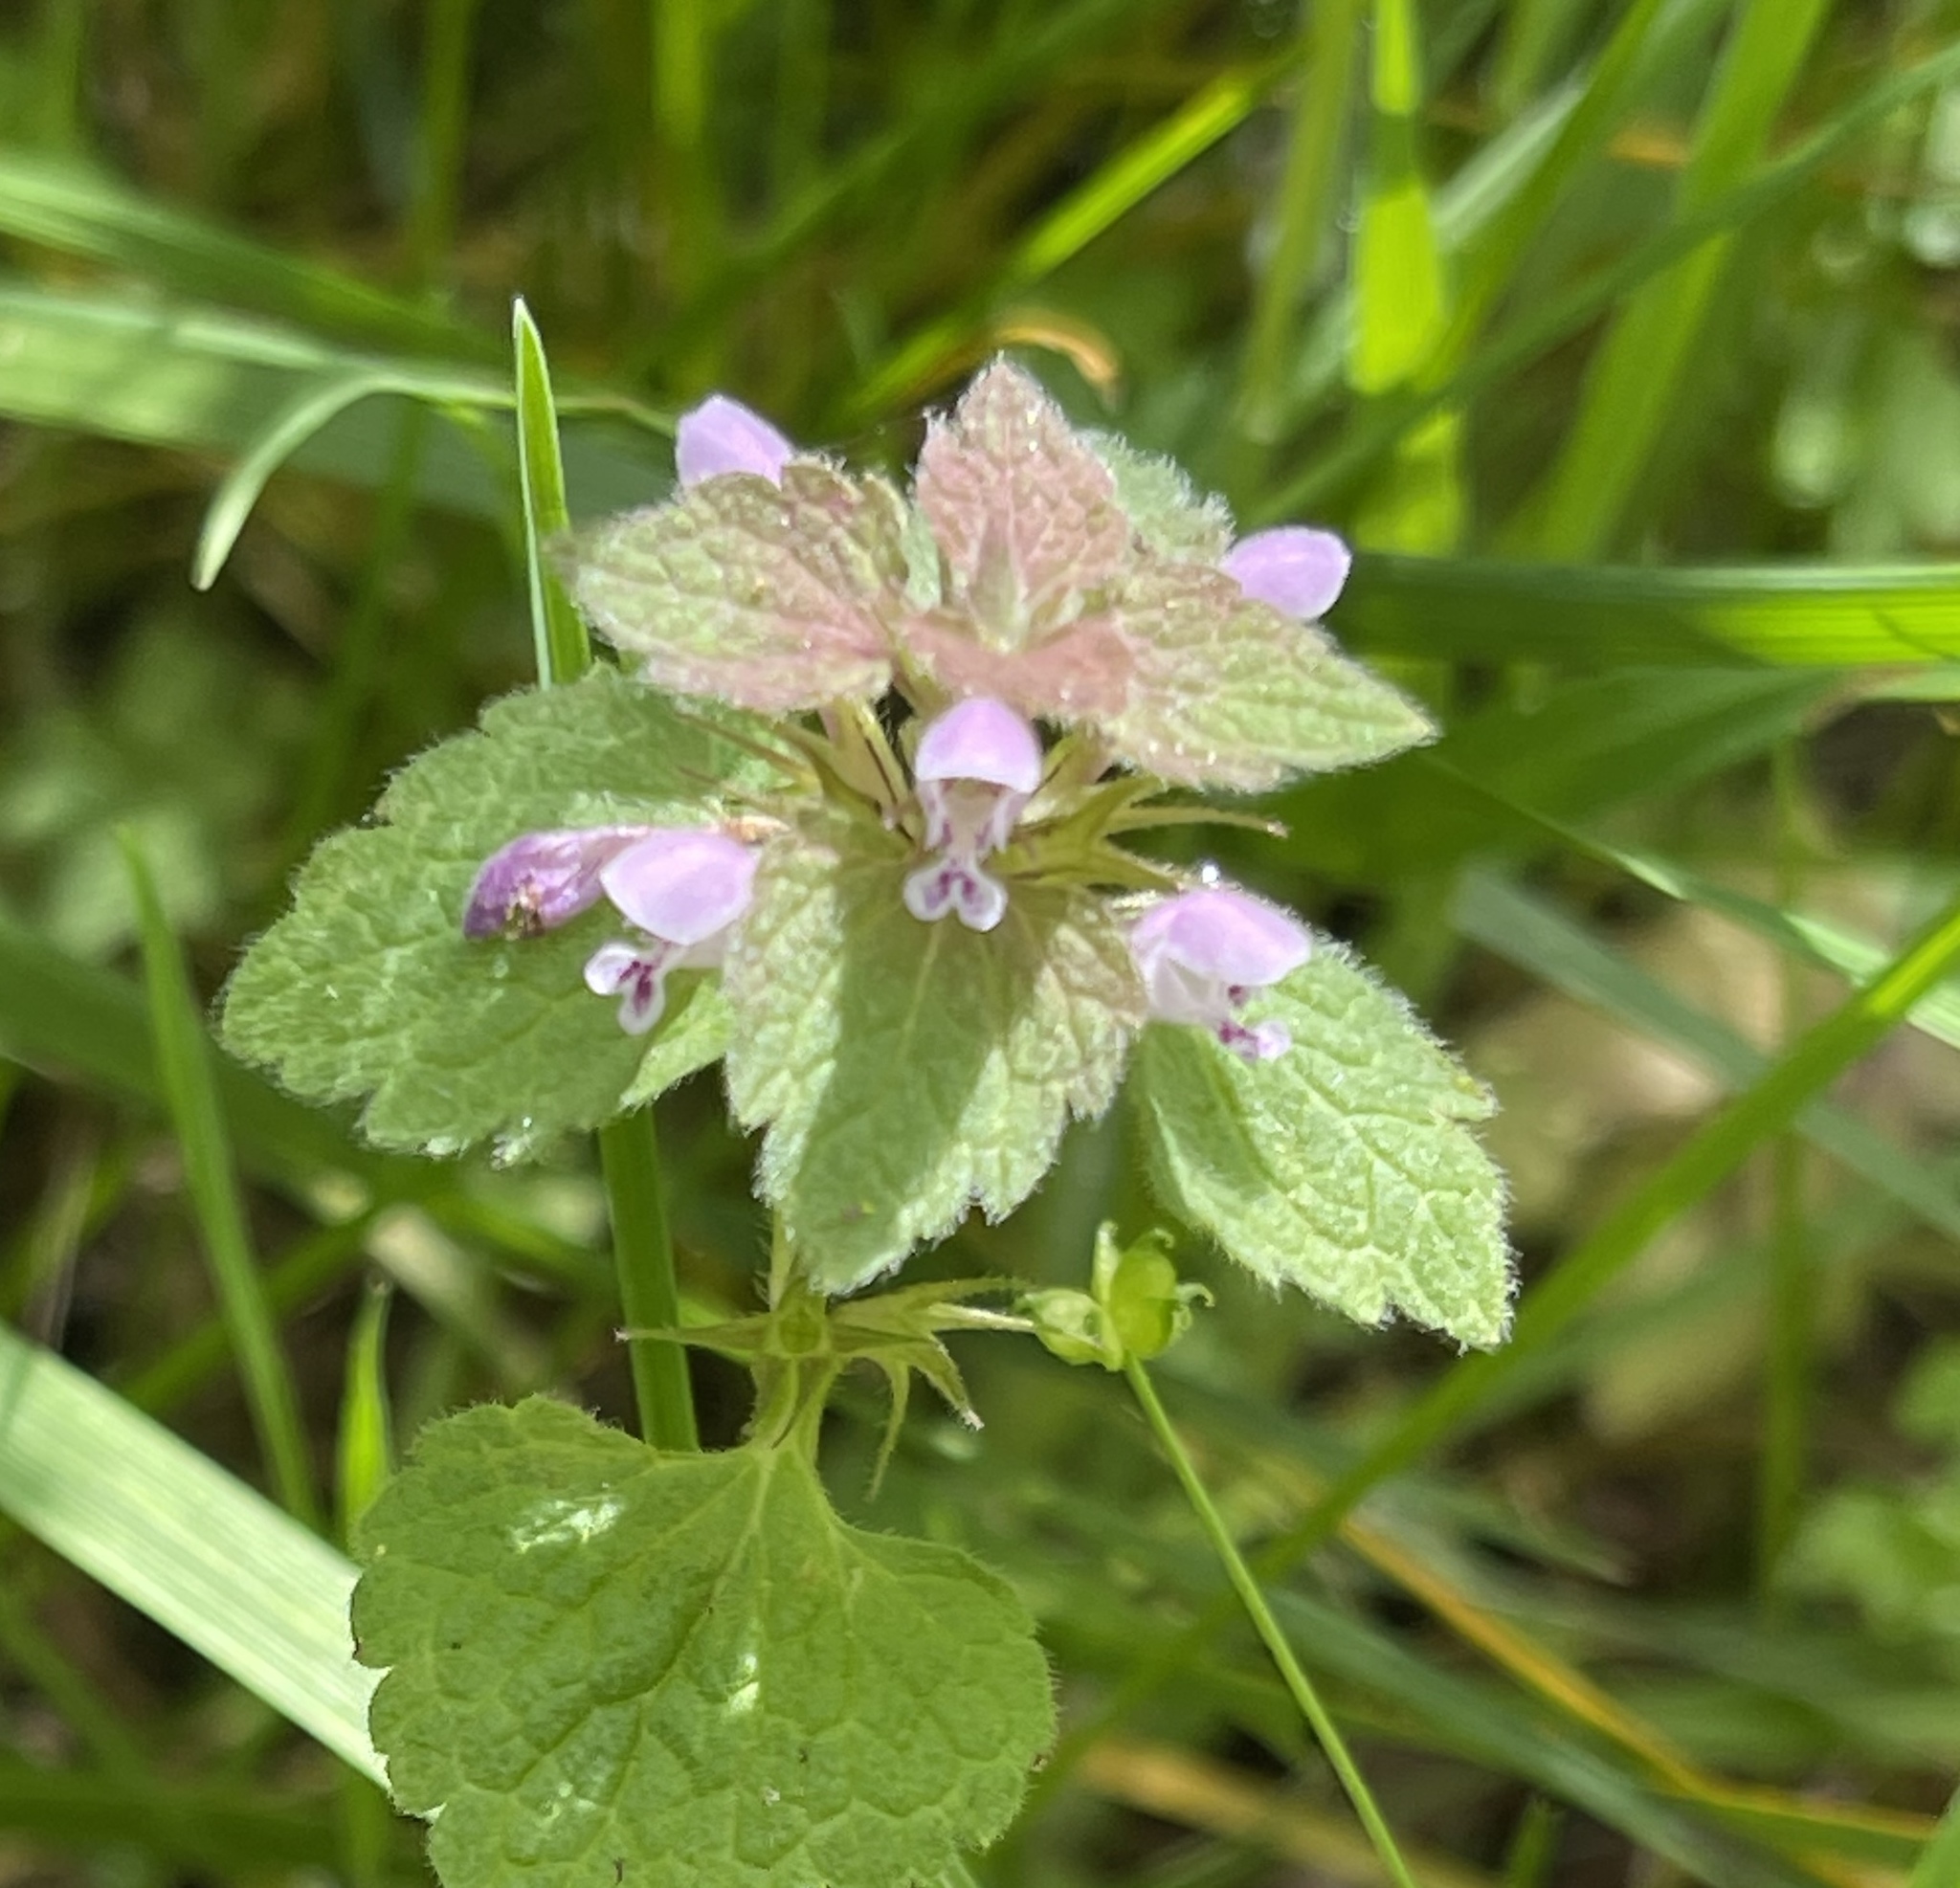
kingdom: Plantae
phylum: Tracheophyta
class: Magnoliopsida
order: Lamiales
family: Lamiaceae
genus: Lamium
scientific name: Lamium purpureum
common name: Red dead-nettle
